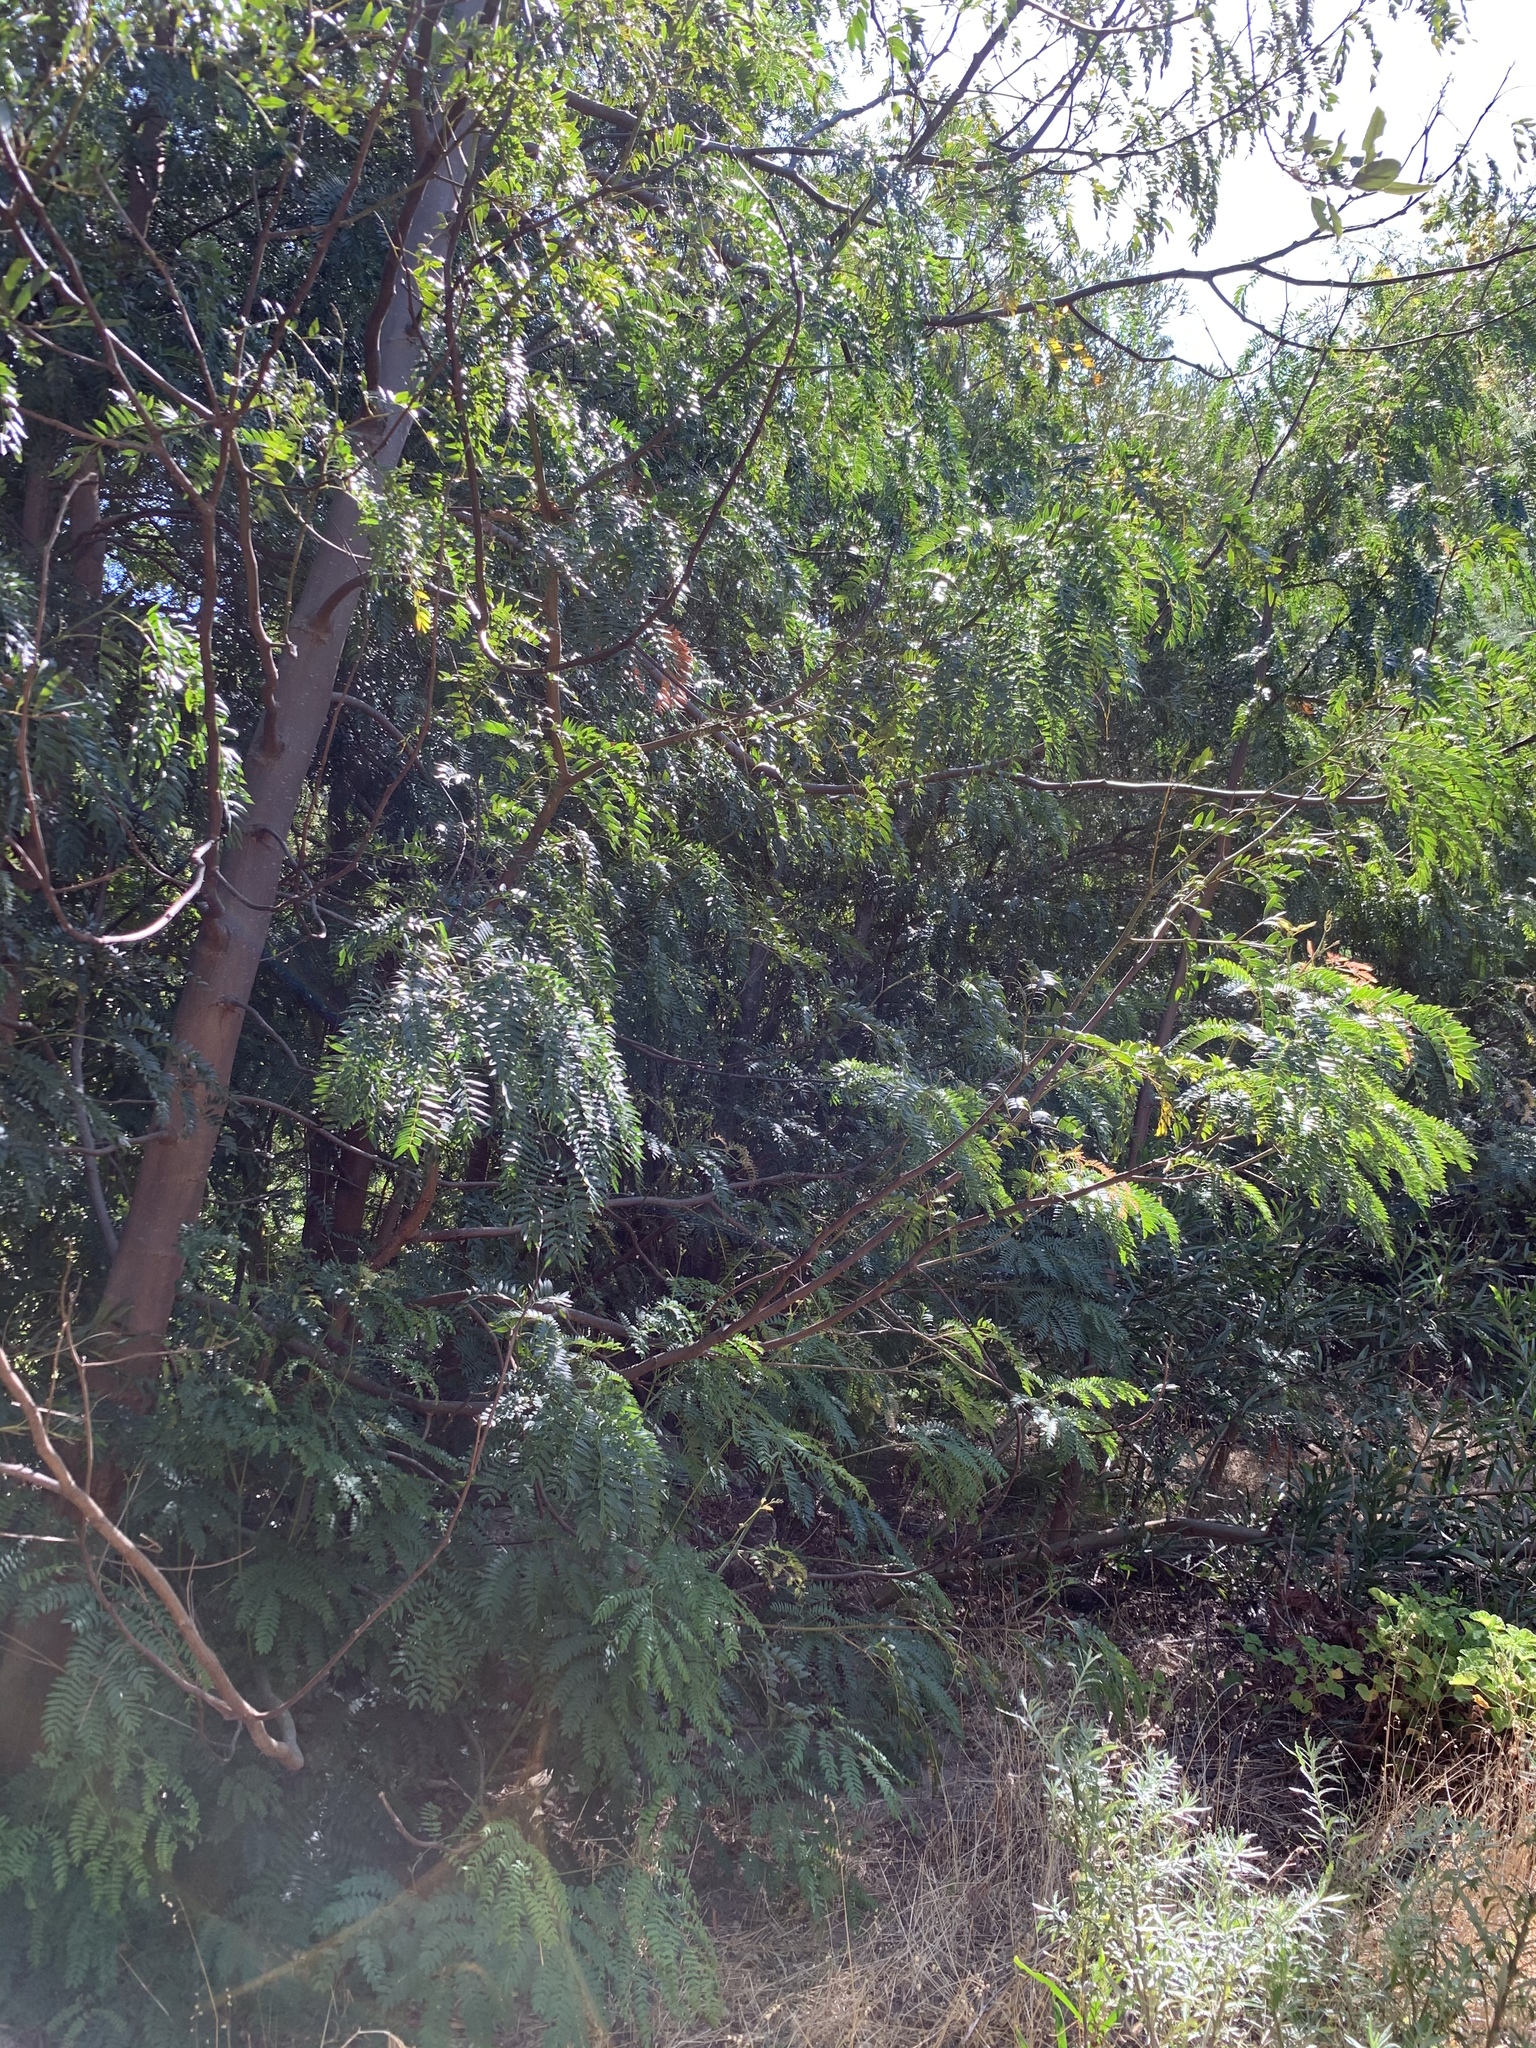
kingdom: Plantae
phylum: Tracheophyta
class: Magnoliopsida
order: Fabales
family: Fabaceae
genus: Acacia
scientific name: Acacia elata
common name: Cedar wattle
